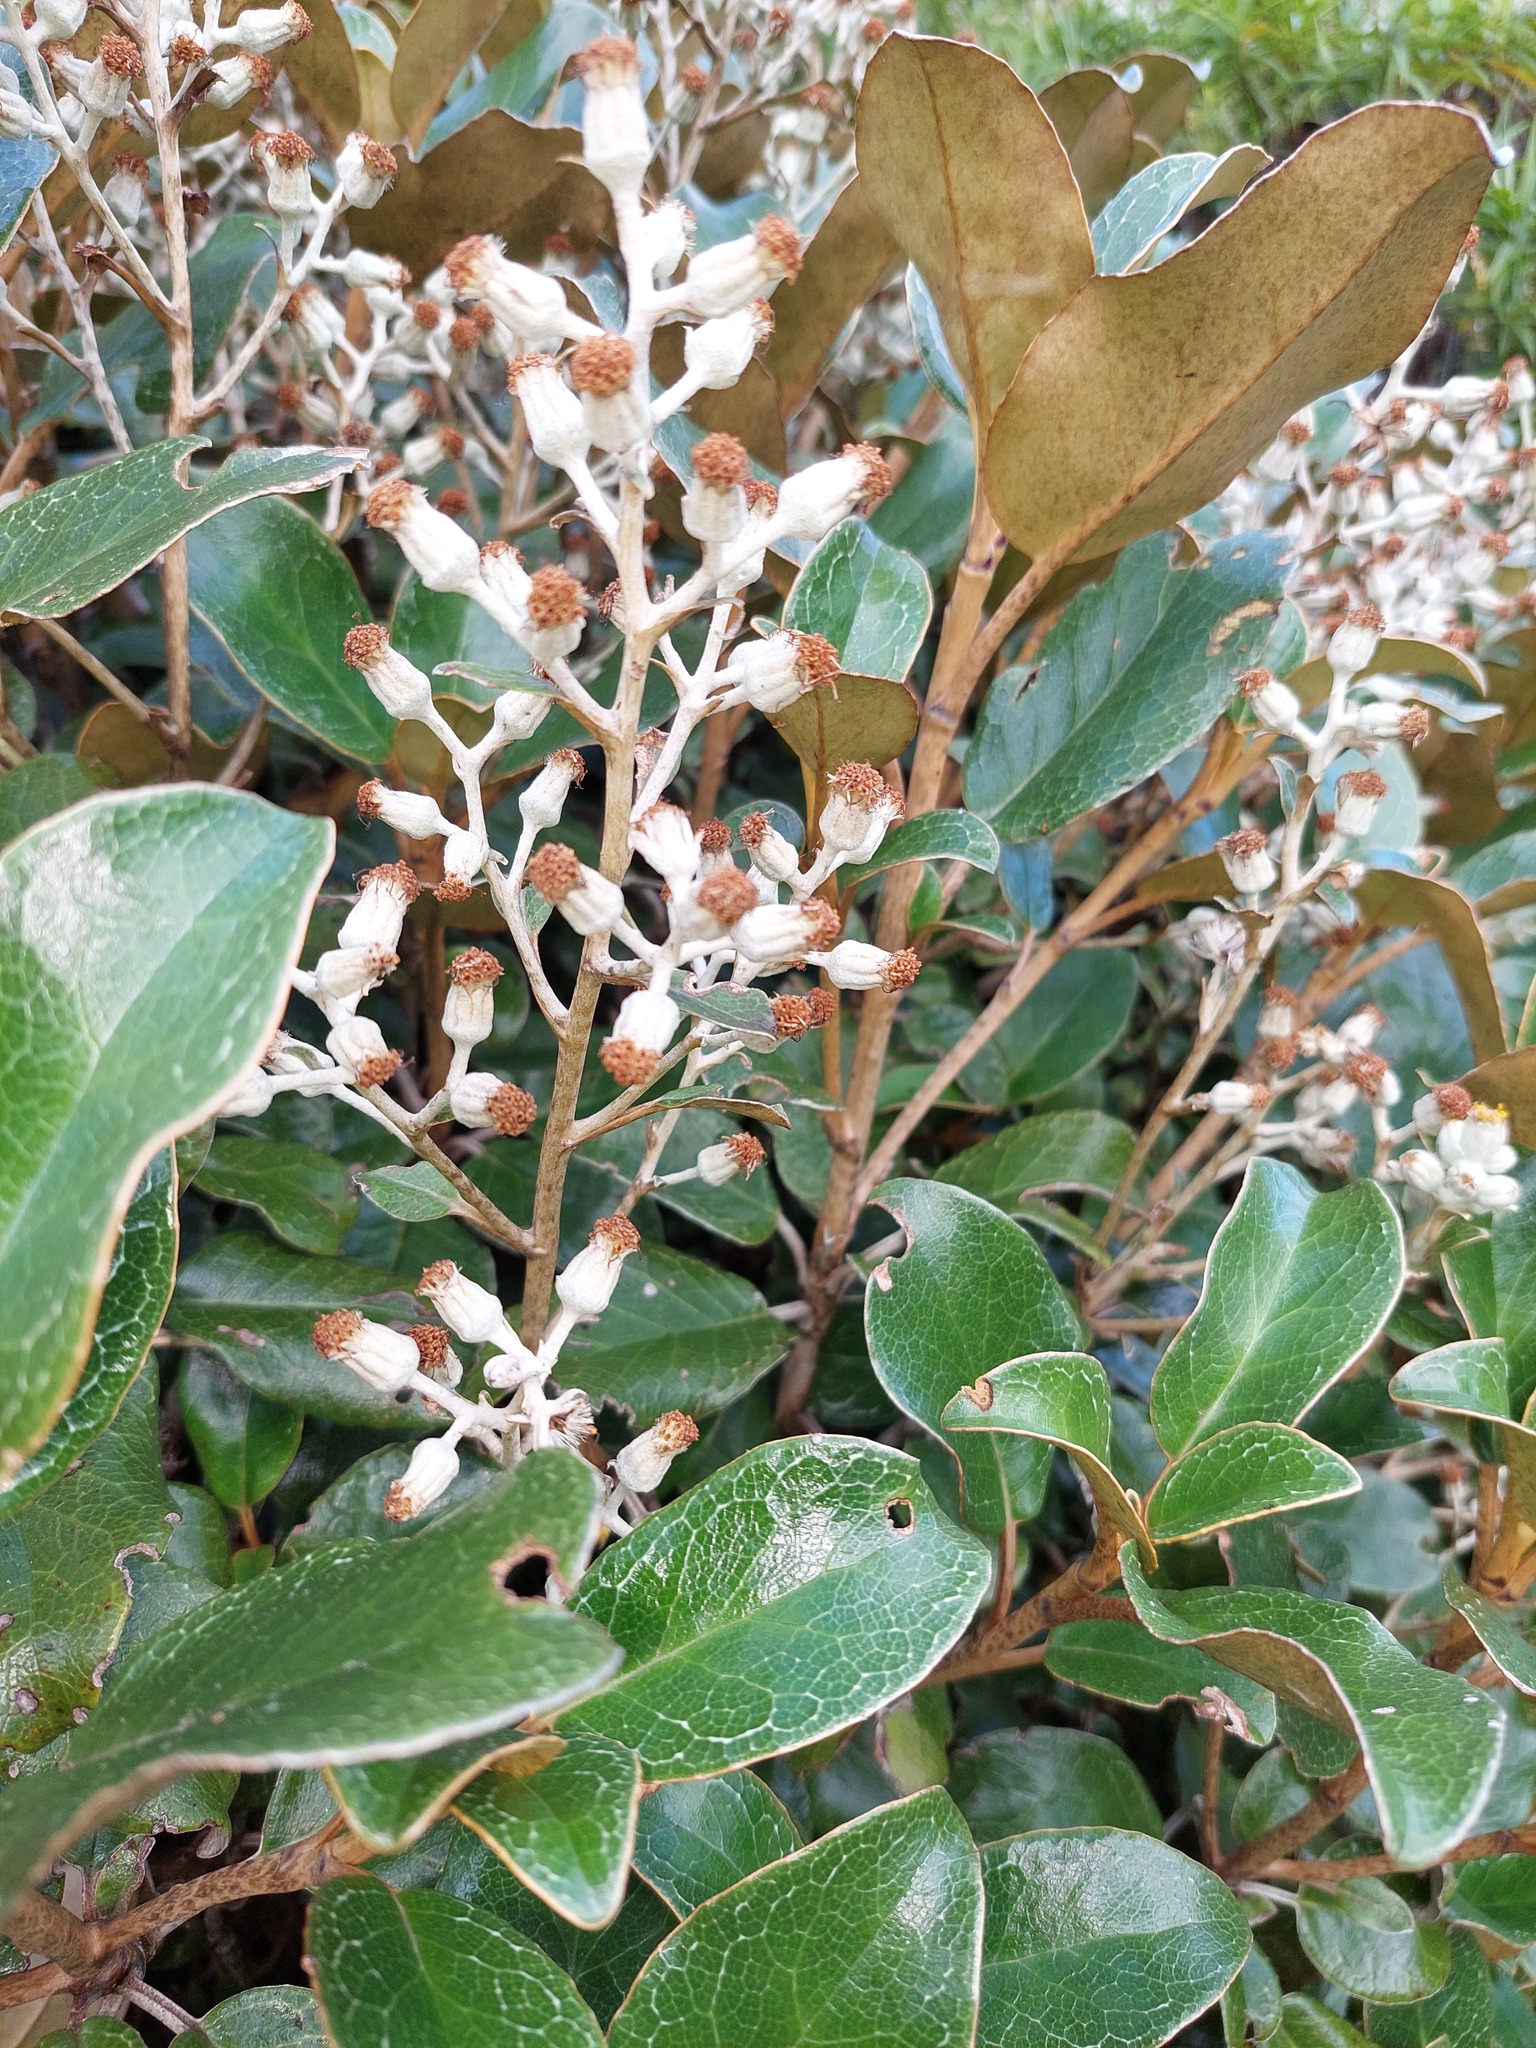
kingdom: Plantae
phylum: Tracheophyta
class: Magnoliopsida
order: Asterales
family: Asteraceae
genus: Brachyglottis
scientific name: Brachyglottis elaeagnifolia
